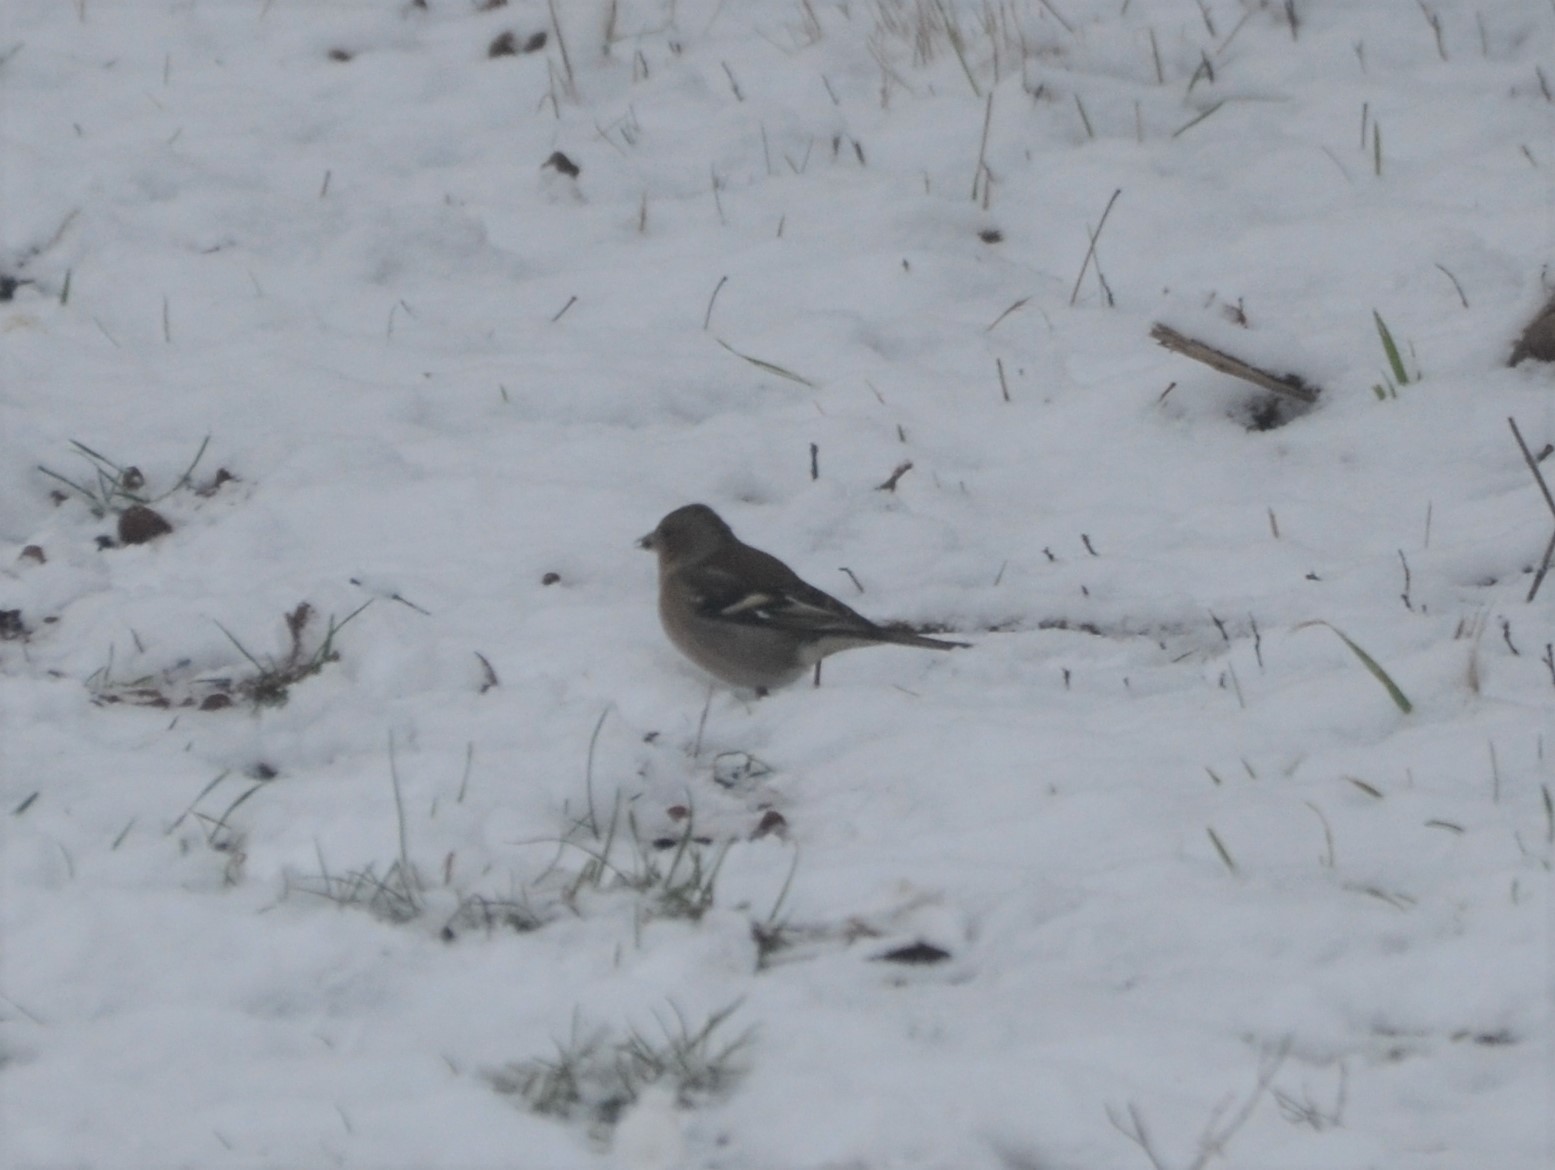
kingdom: Animalia
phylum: Chordata
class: Aves
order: Passeriformes
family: Fringillidae
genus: Fringilla
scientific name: Fringilla coelebs
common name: Common chaffinch
